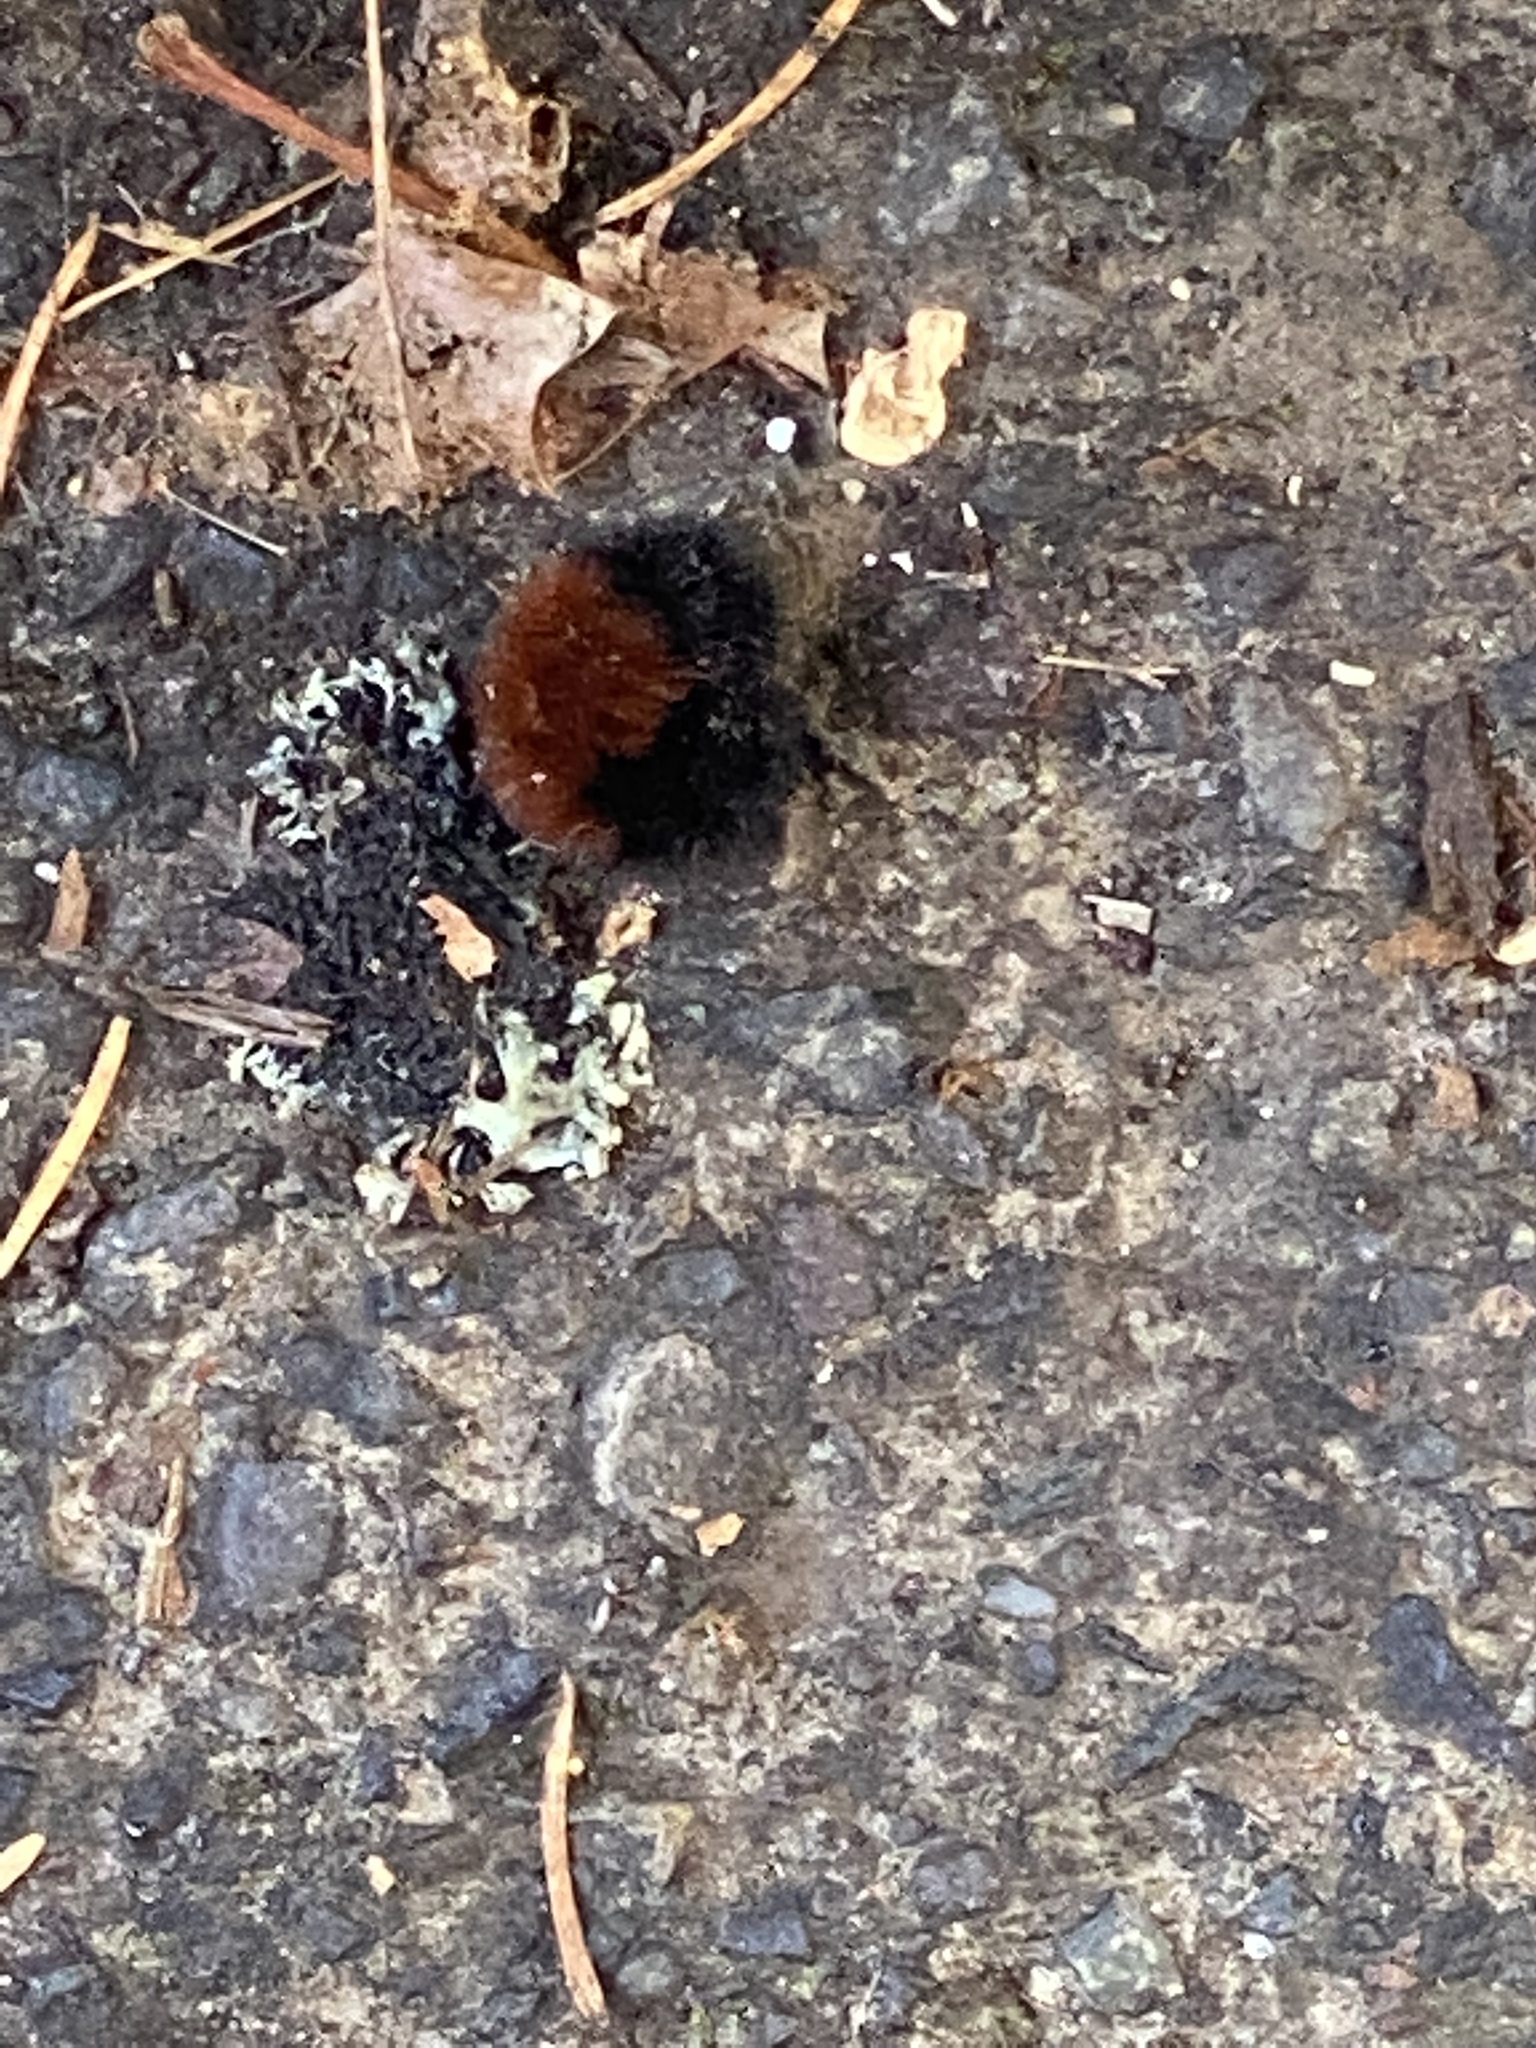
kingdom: Animalia
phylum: Arthropoda
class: Insecta
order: Lepidoptera
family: Erebidae
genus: Pyrrharctia
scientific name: Pyrrharctia isabella
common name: Isabella tiger moth
